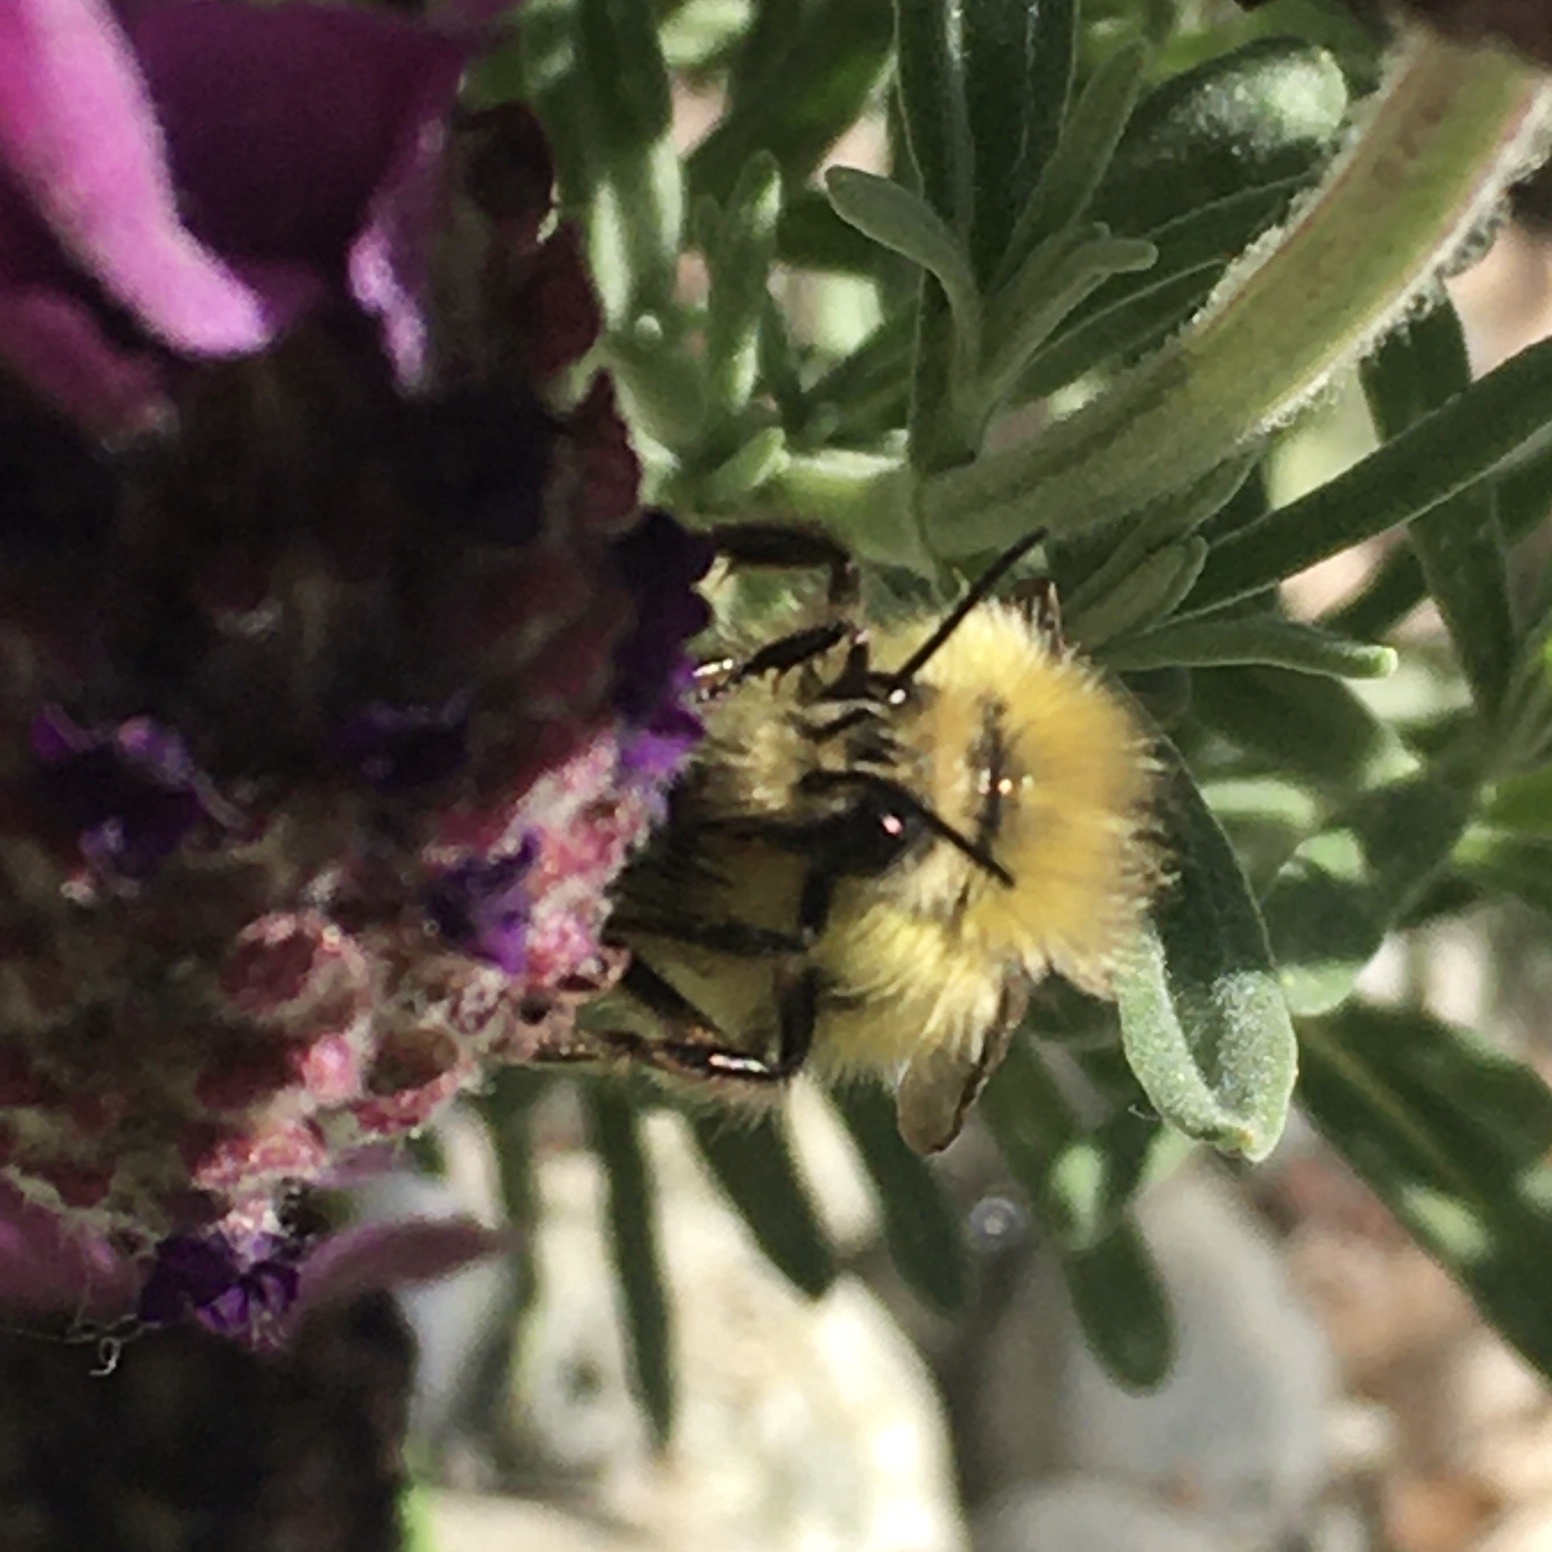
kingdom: Animalia
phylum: Arthropoda
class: Insecta
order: Hymenoptera
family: Apidae
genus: Bombus
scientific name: Bombus flavifrons
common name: Yellow head bumble bee
